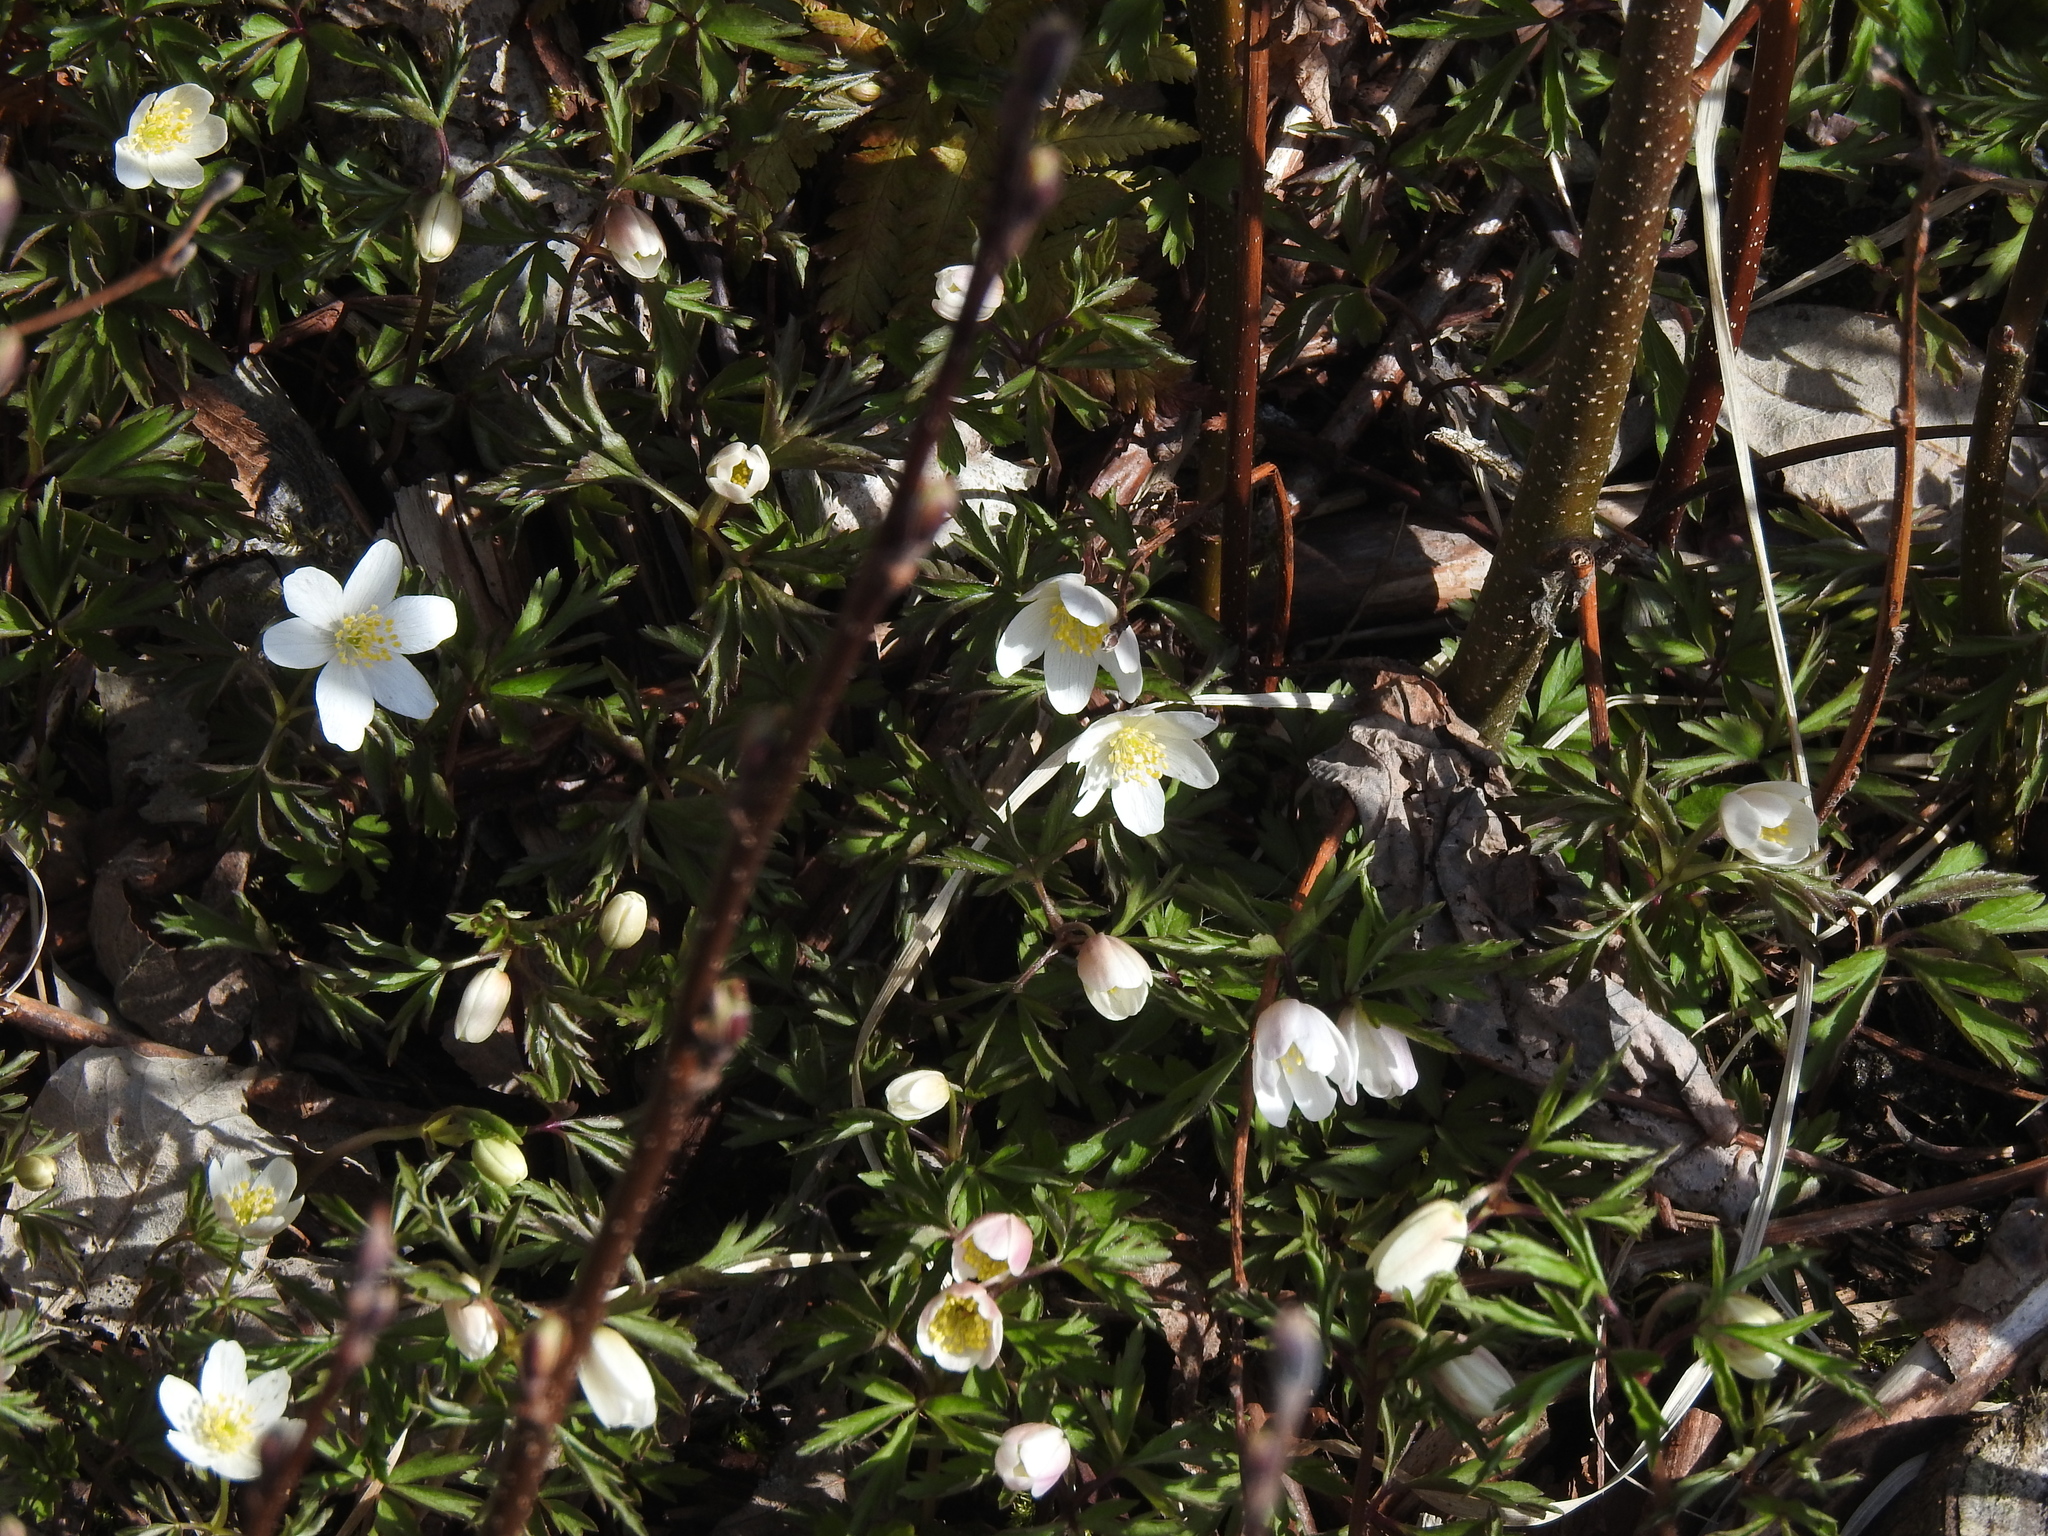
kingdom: Plantae
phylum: Tracheophyta
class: Magnoliopsida
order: Ranunculales
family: Ranunculaceae
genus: Anemone
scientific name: Anemone nemorosa
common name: Wood anemone
